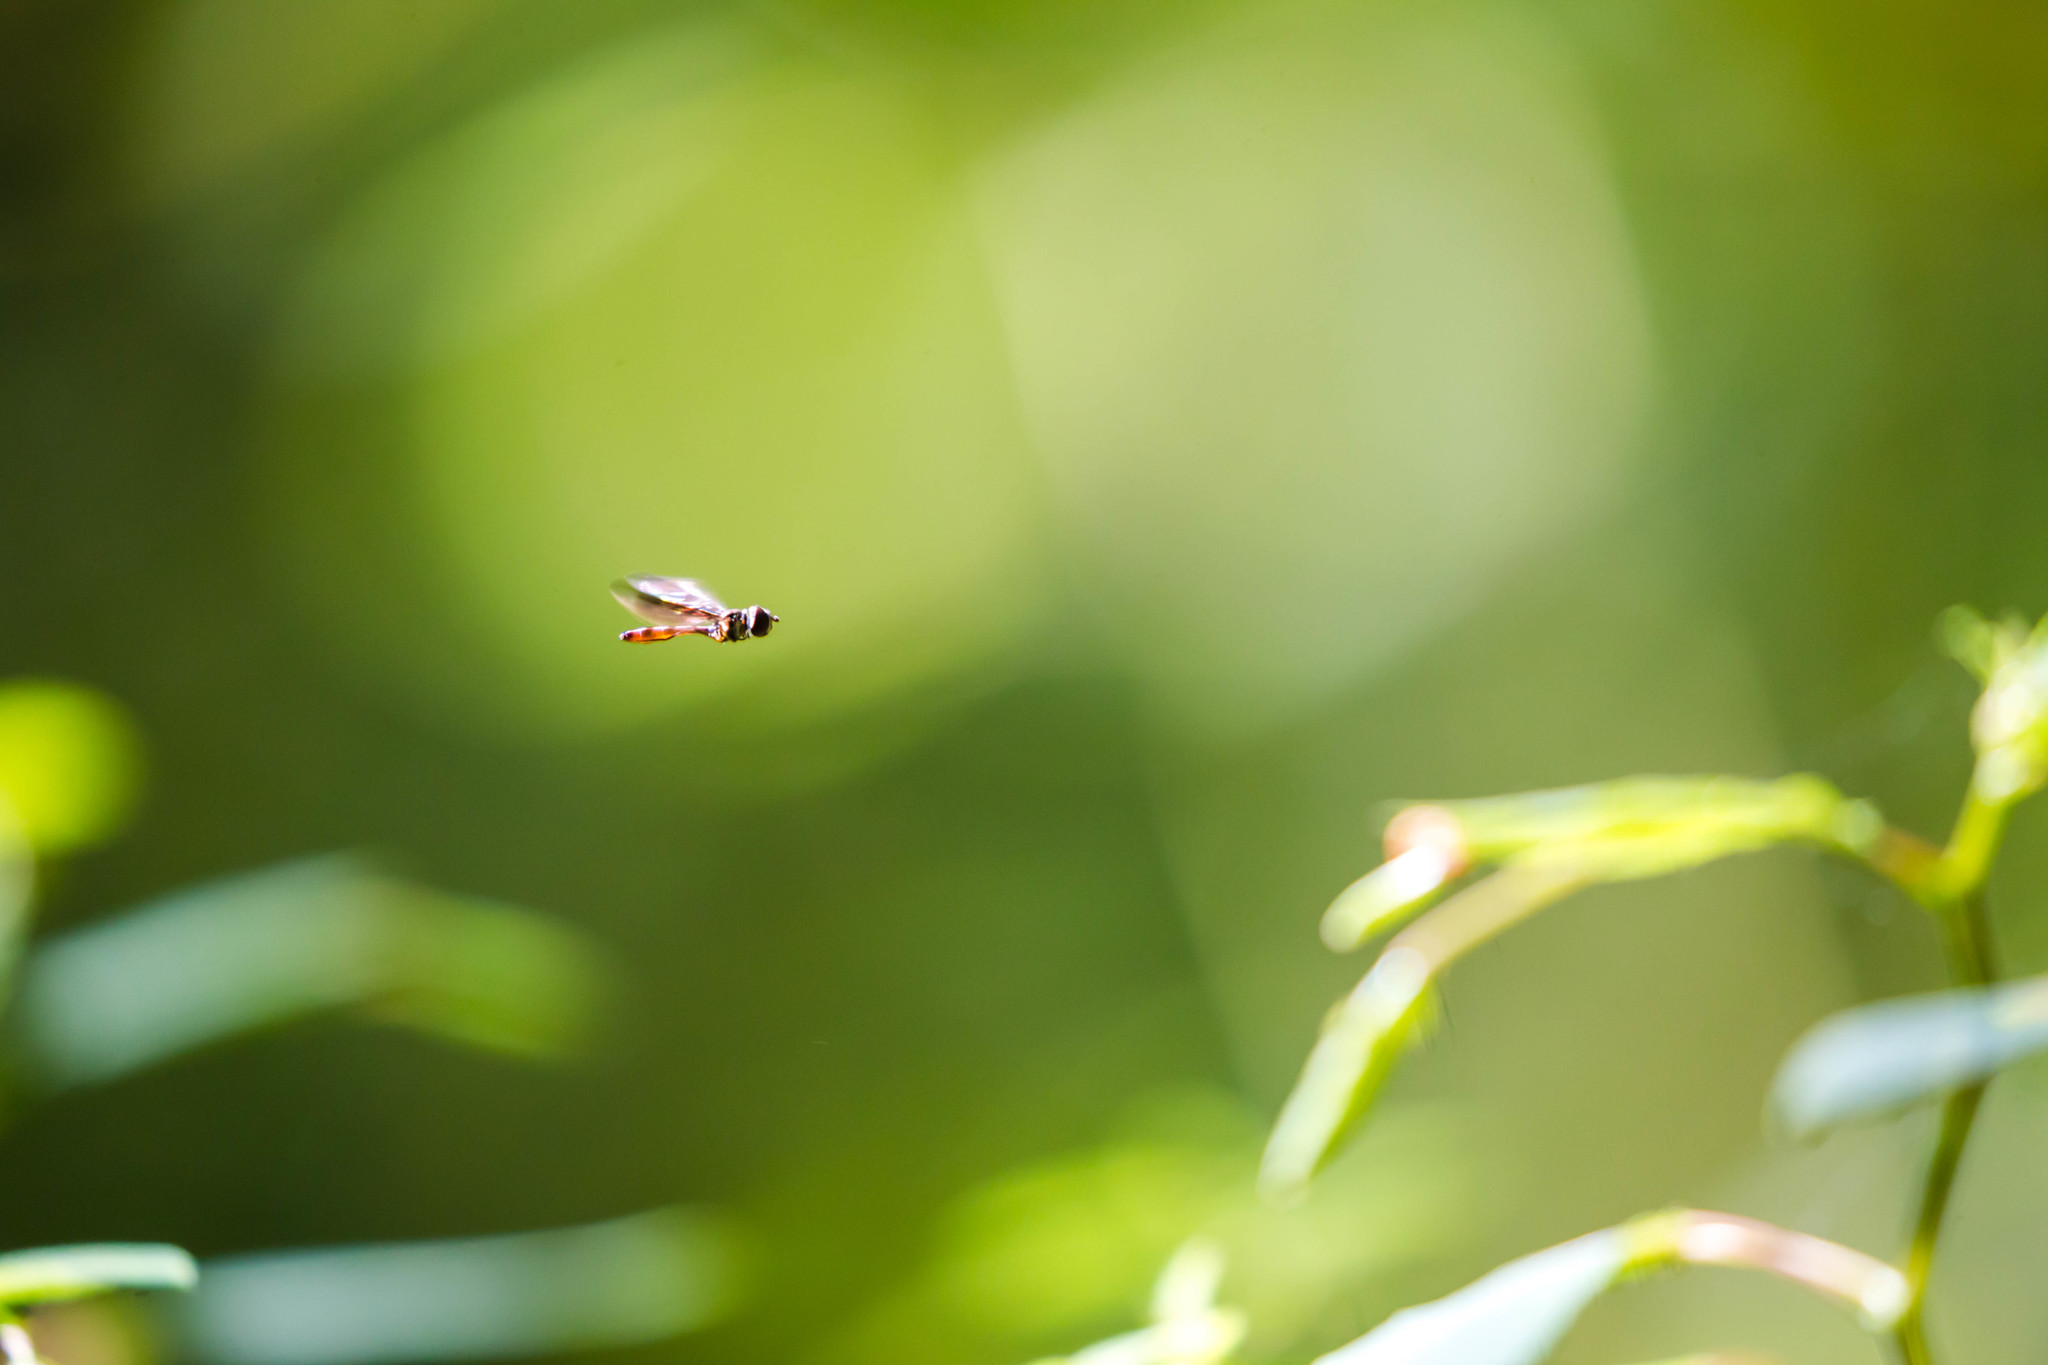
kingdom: Animalia
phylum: Arthropoda
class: Insecta
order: Diptera
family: Syrphidae
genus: Ocyptamus
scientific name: Ocyptamus fuscipennis
